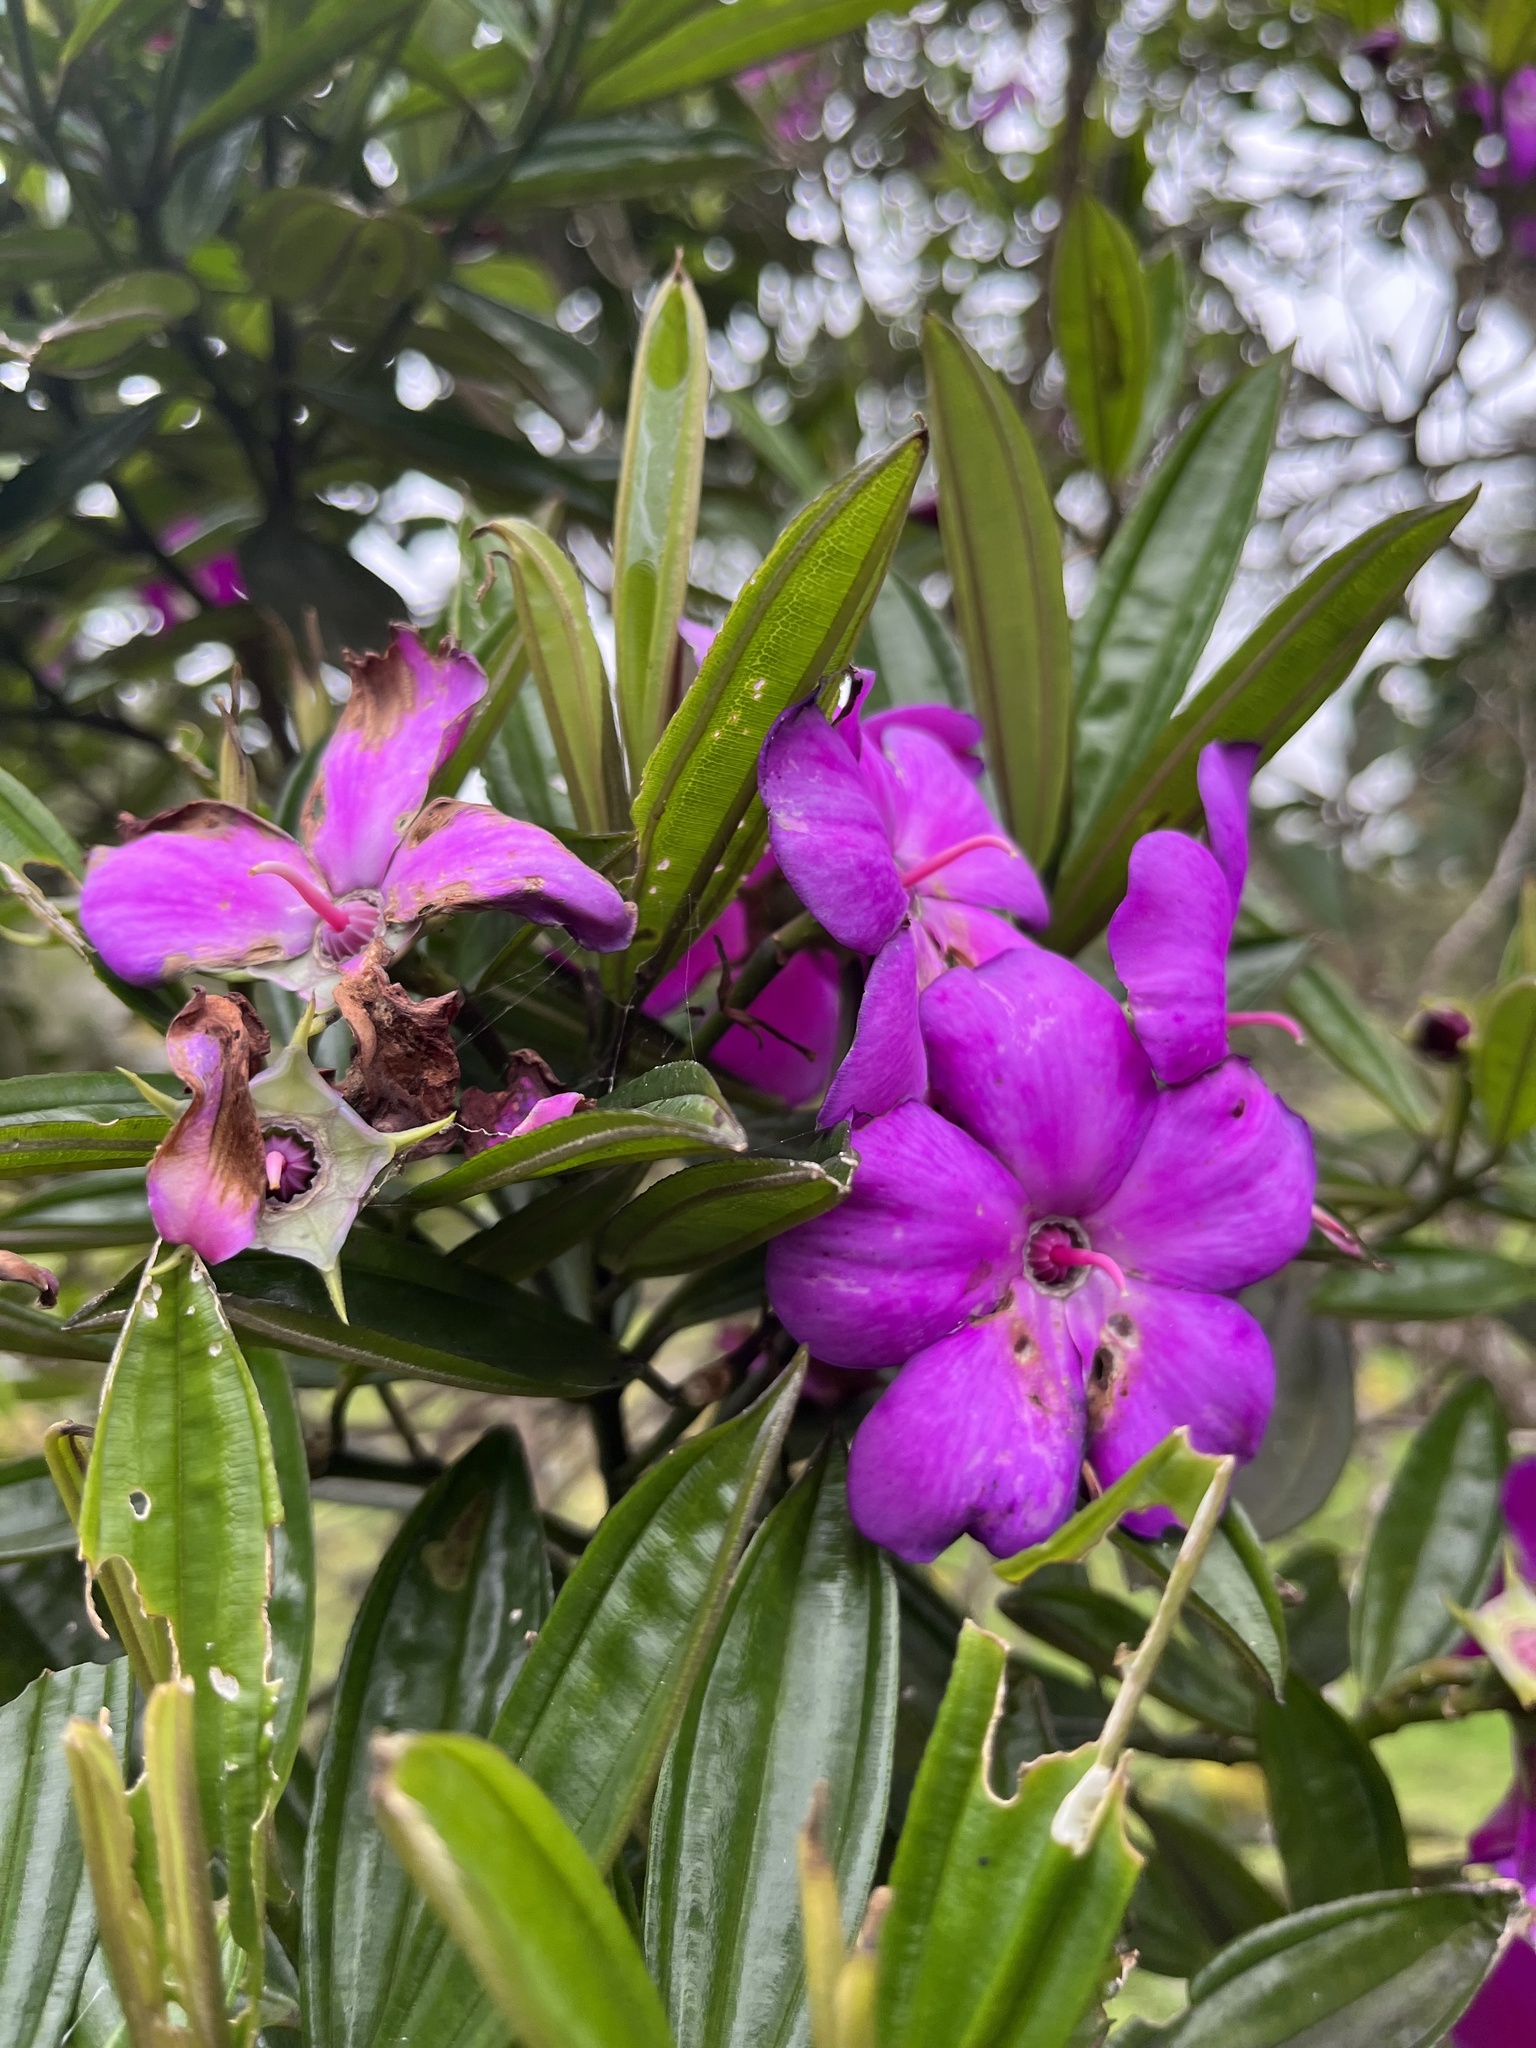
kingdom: Plantae
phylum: Tracheophyta
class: Magnoliopsida
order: Myrtales
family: Melastomataceae
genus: Meriania
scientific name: Meriania speciosa
